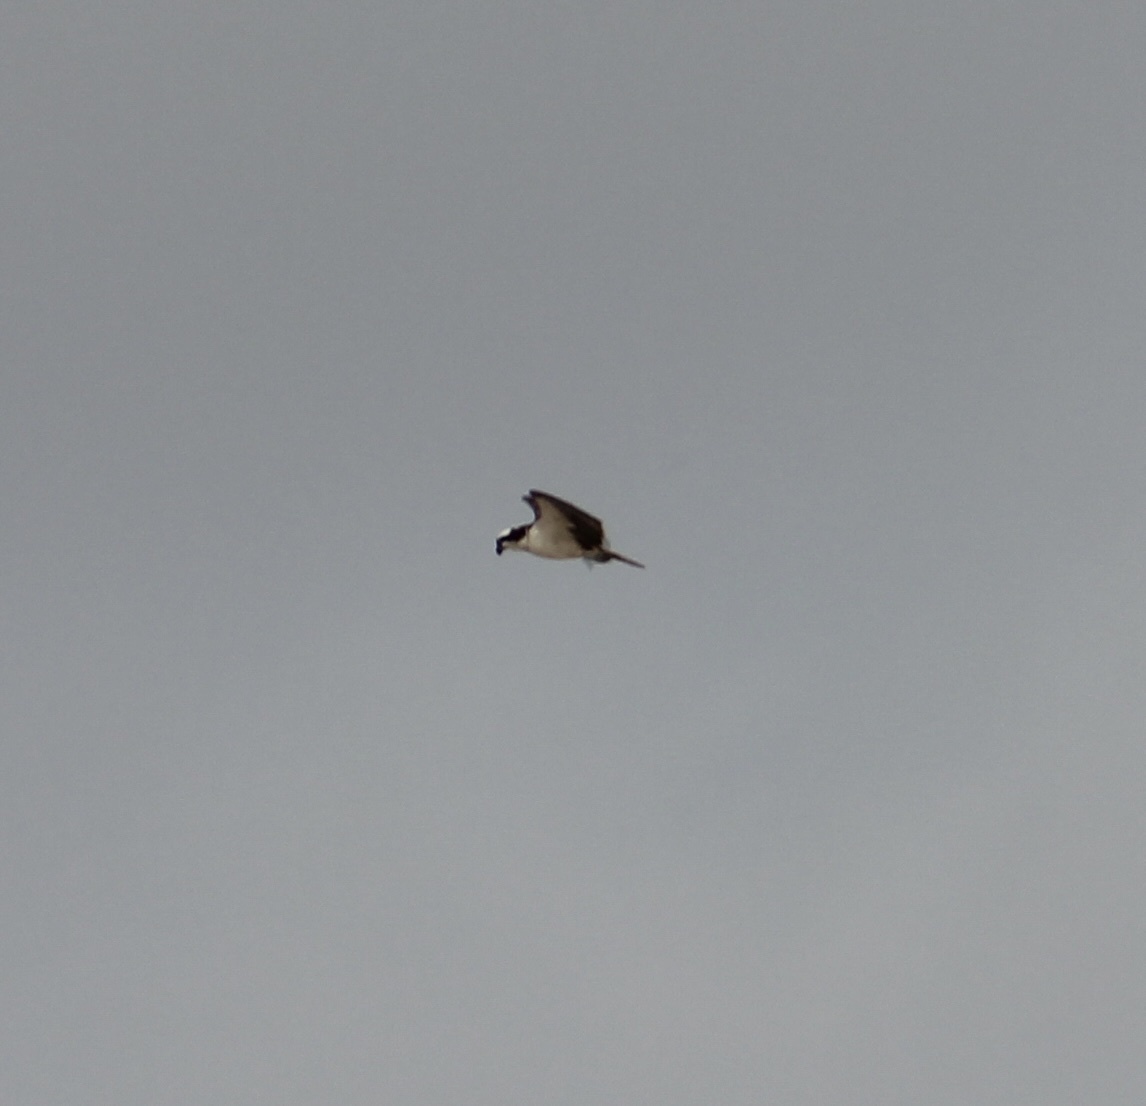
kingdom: Animalia
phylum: Chordata
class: Aves
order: Accipitriformes
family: Pandionidae
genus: Pandion
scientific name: Pandion haliaetus
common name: Osprey
